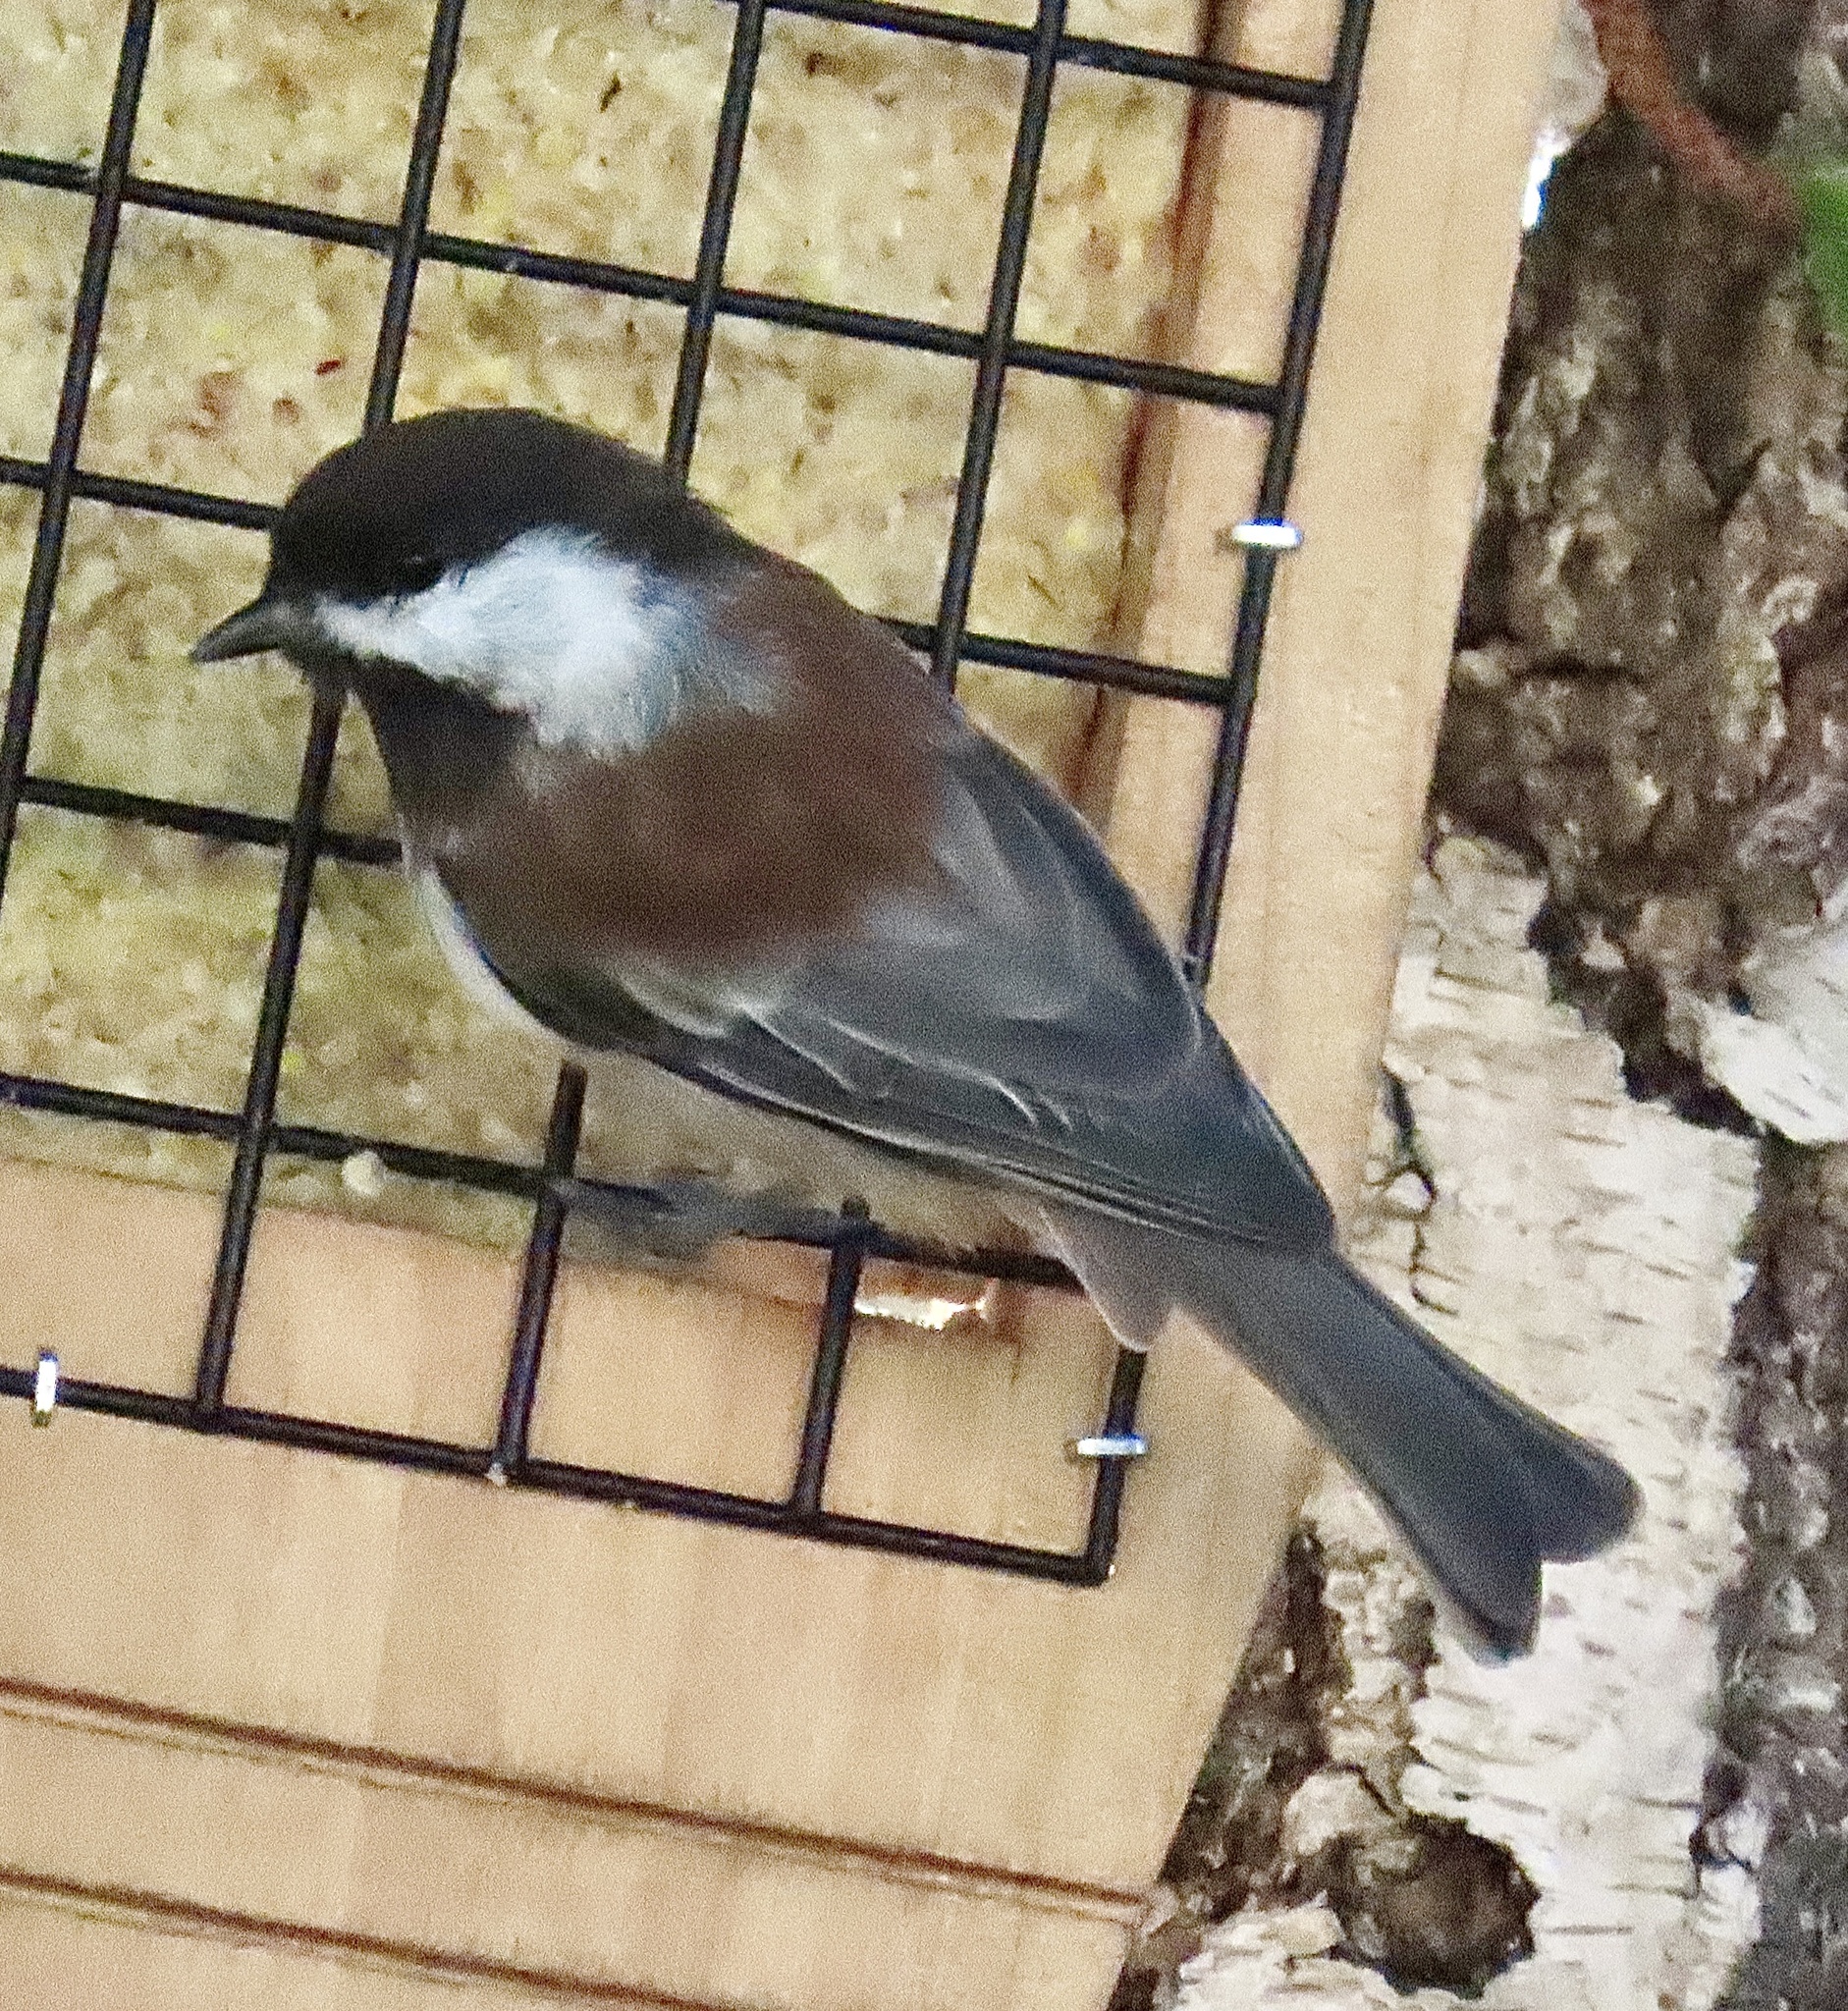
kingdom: Animalia
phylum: Chordata
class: Aves
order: Passeriformes
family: Paridae
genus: Poecile
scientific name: Poecile rufescens
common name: Chestnut-backed chickadee
